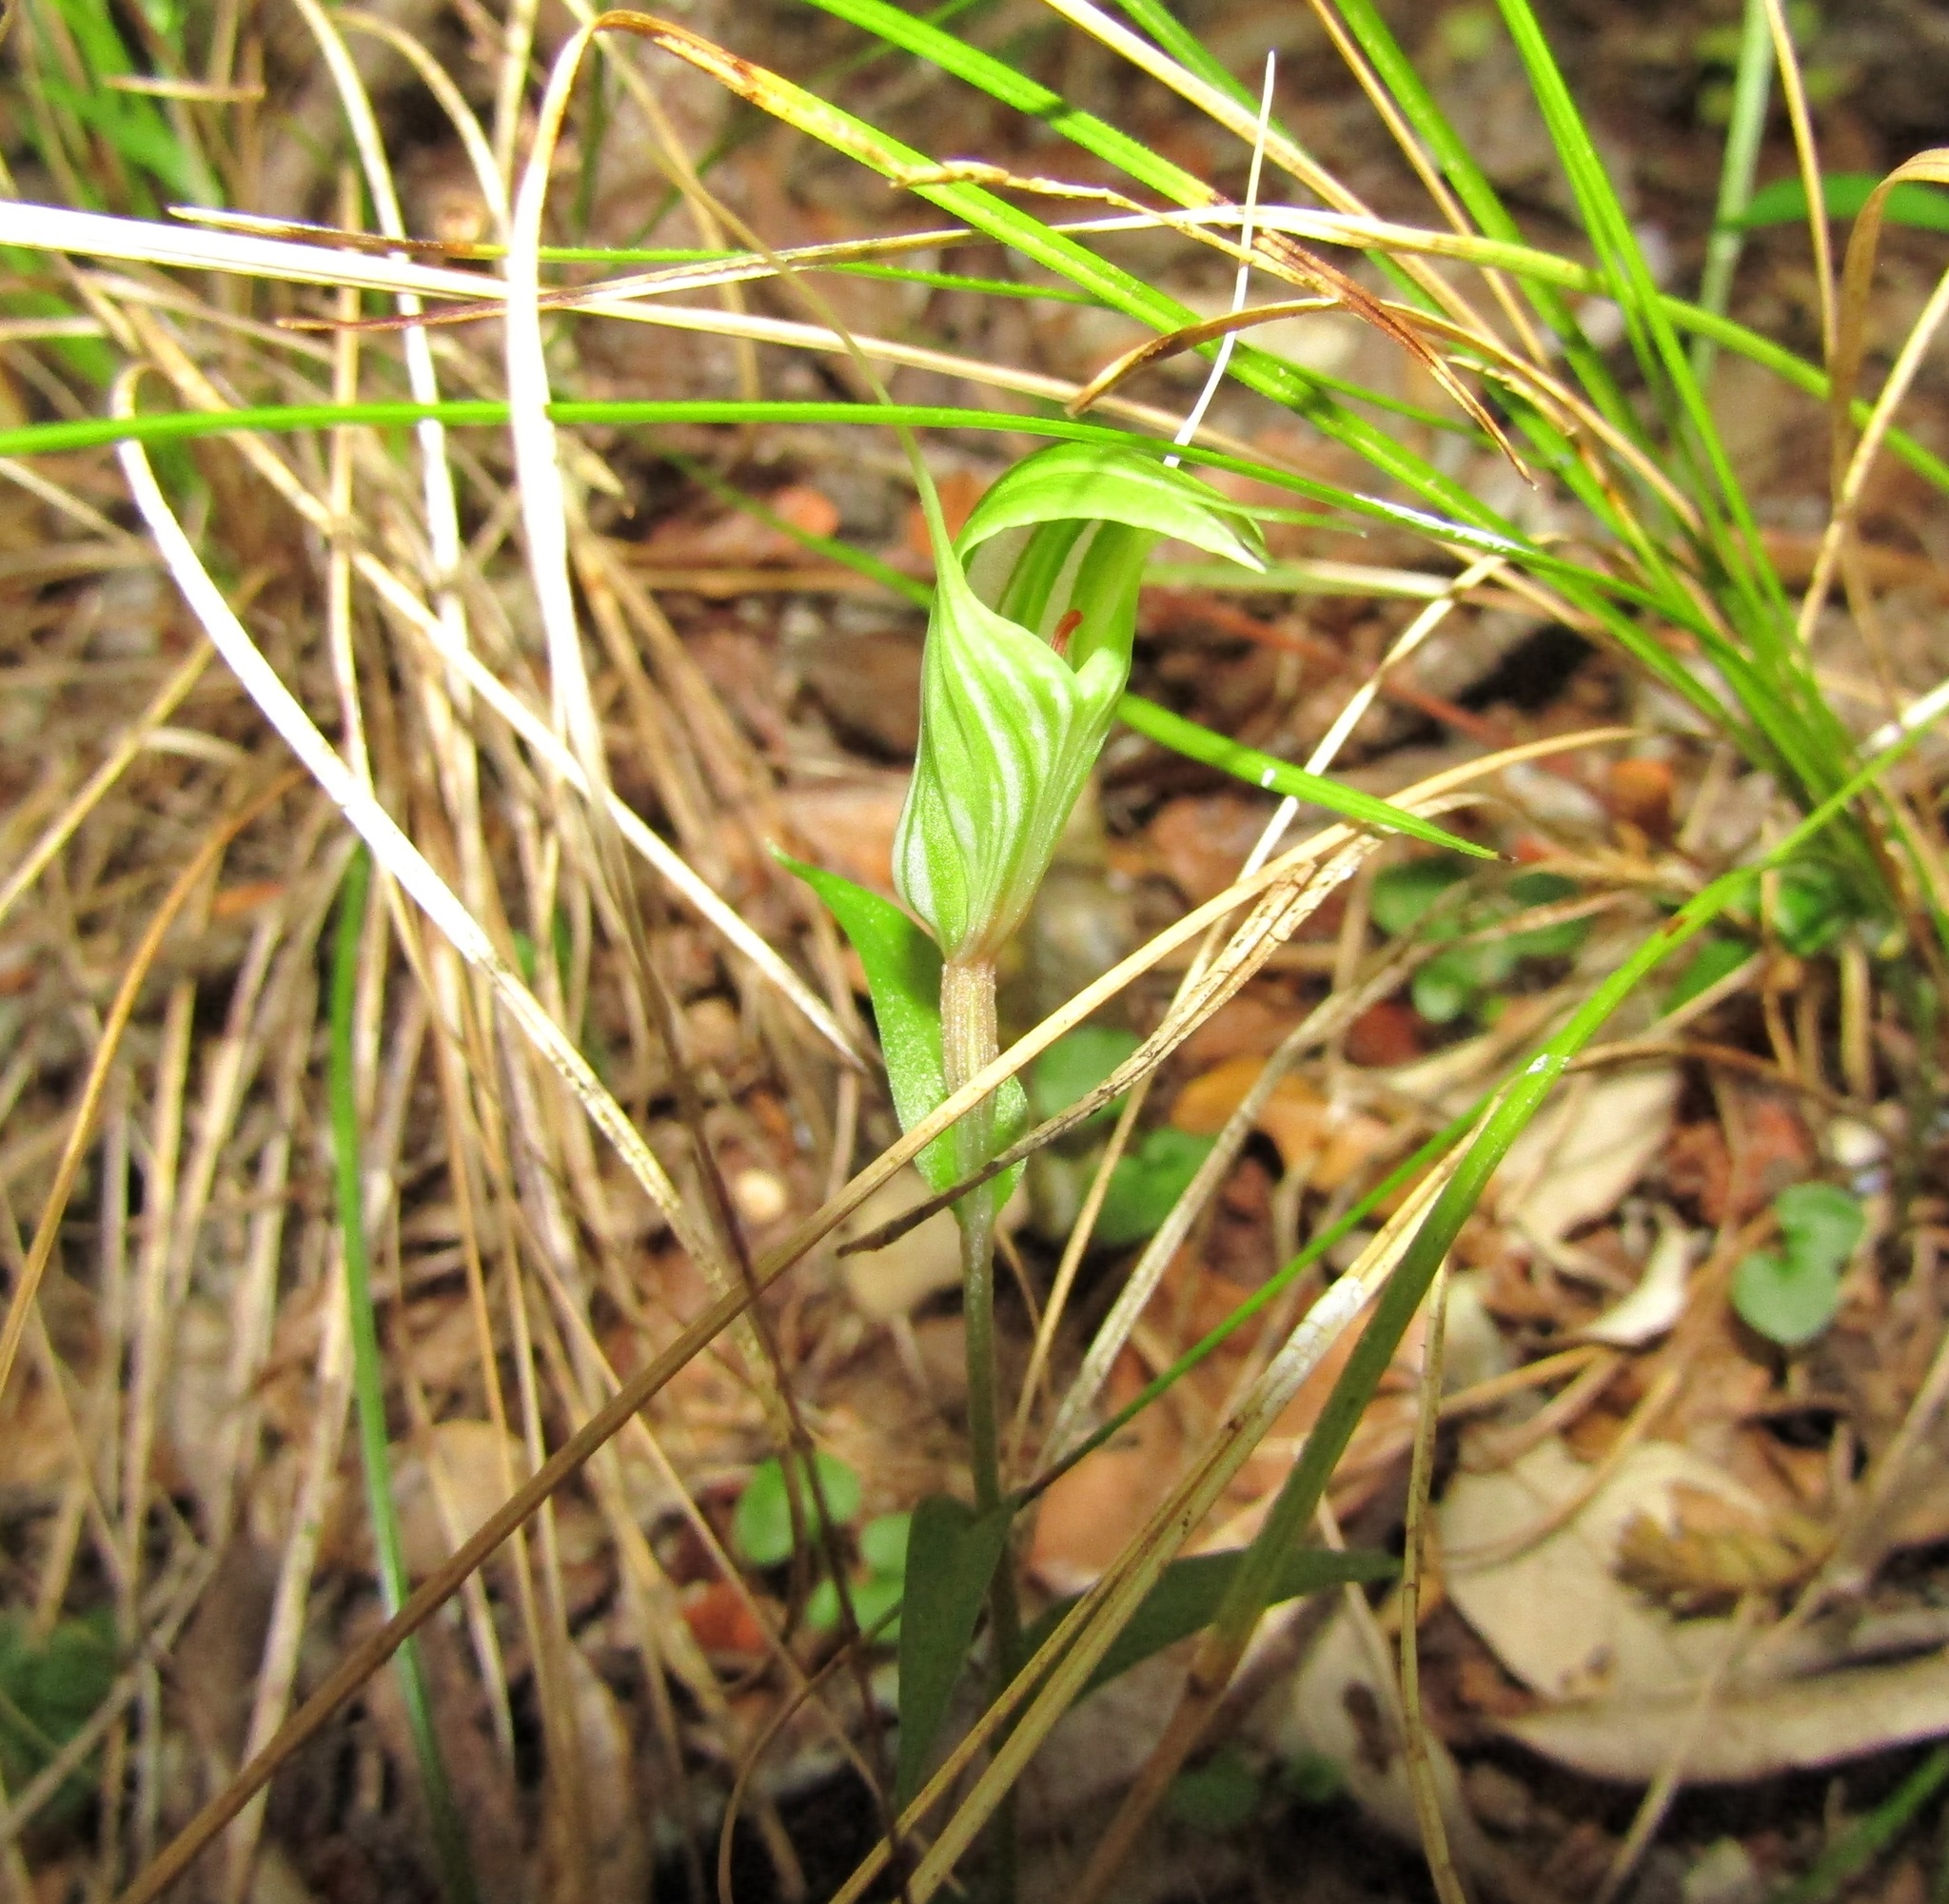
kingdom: Plantae
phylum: Tracheophyta
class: Liliopsida
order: Asparagales
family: Orchidaceae
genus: Pterostylis
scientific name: Pterostylis alobula
